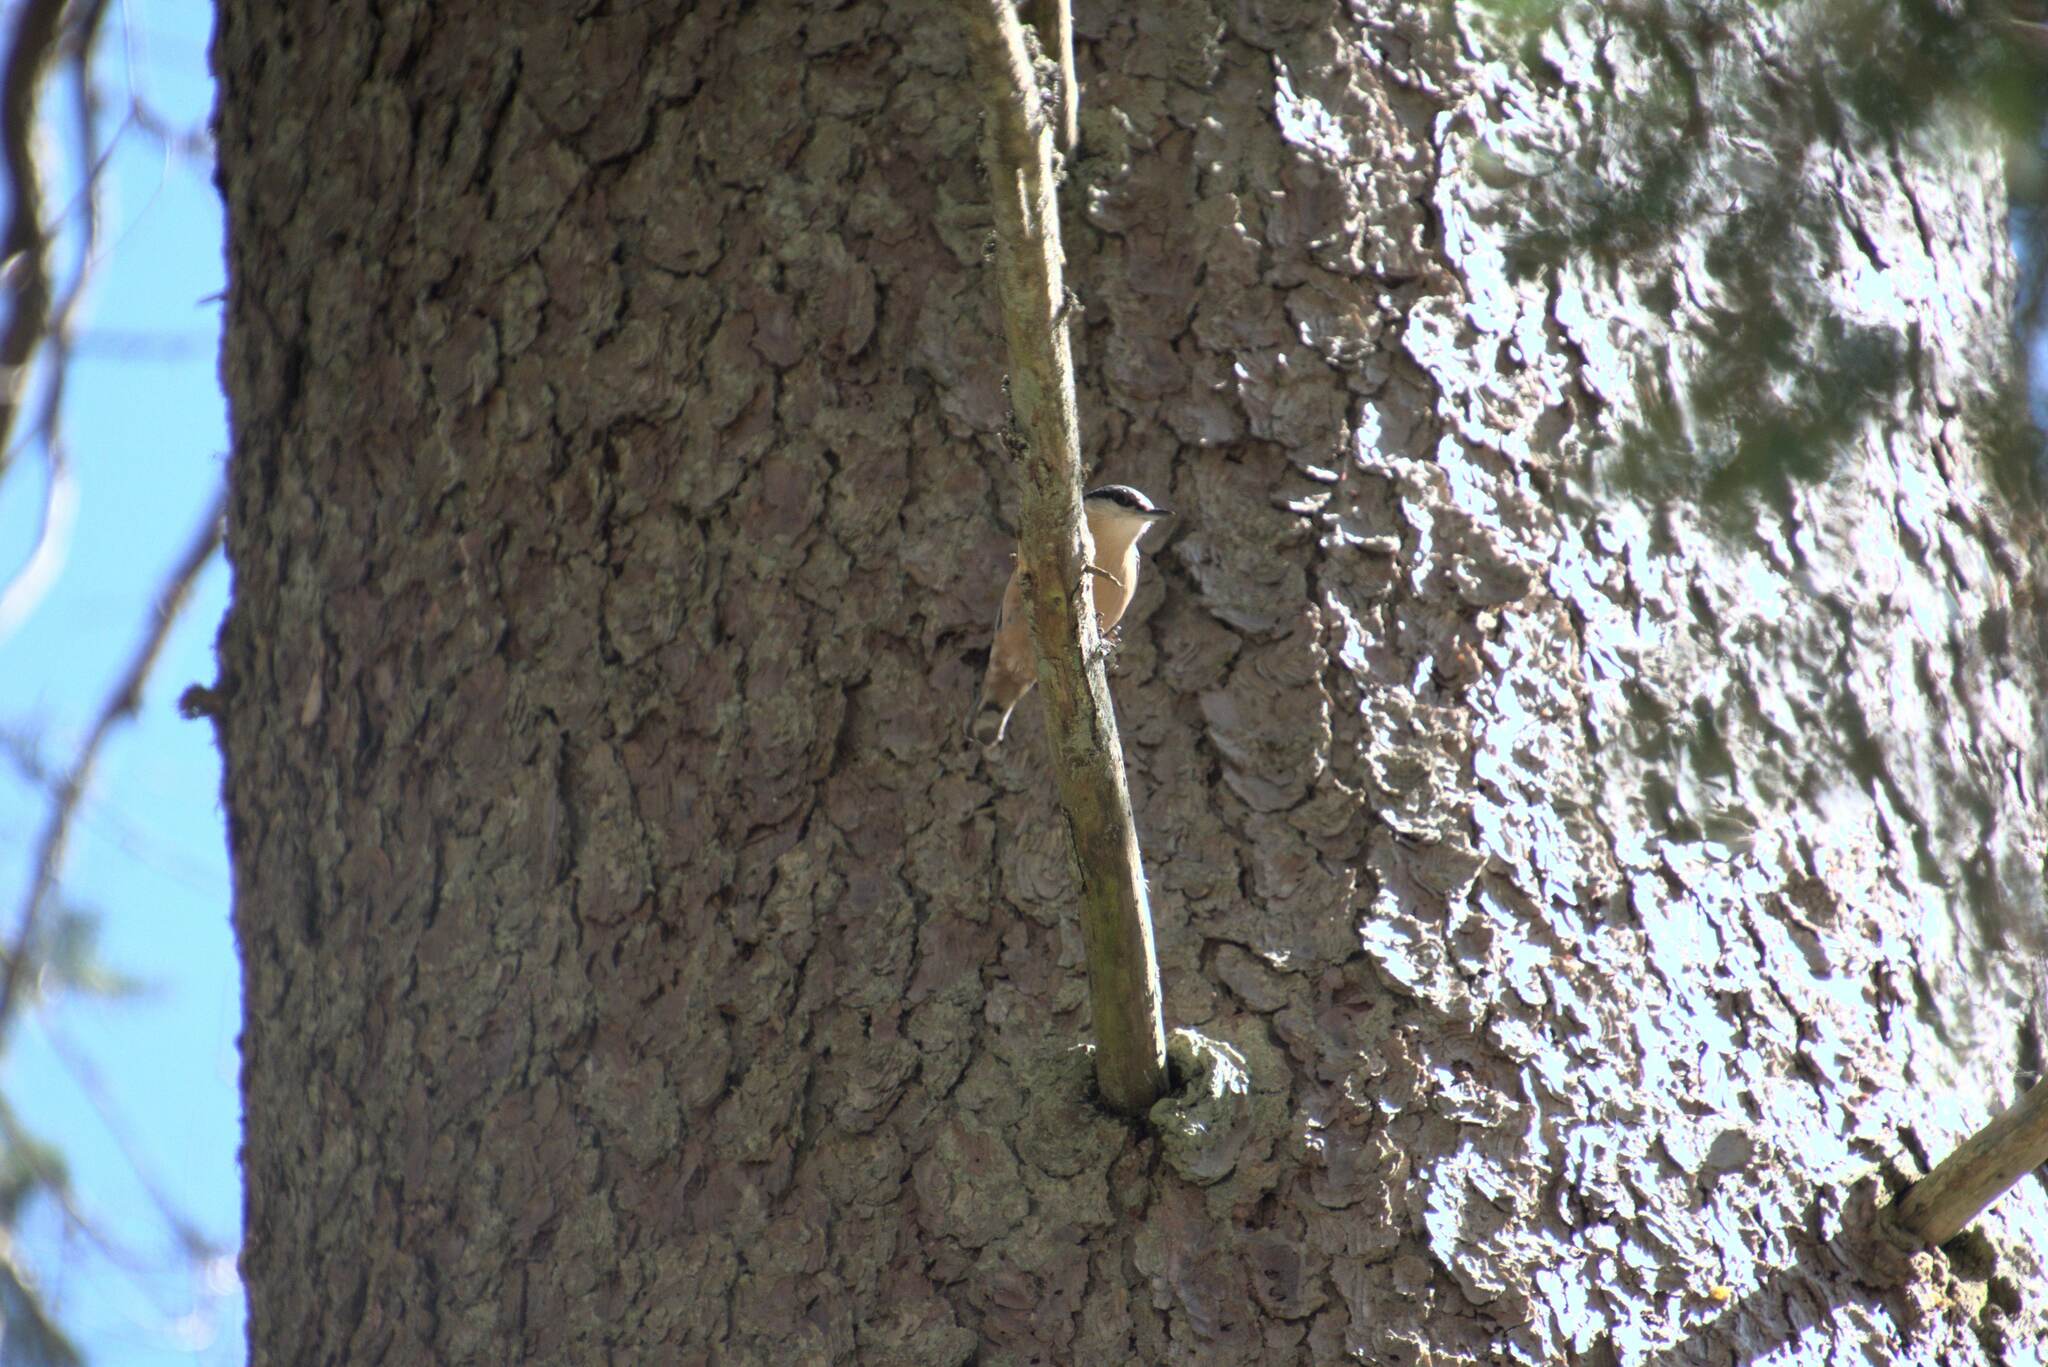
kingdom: Animalia
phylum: Chordata
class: Aves
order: Passeriformes
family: Sittidae
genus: Sitta
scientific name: Sitta europaea
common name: Eurasian nuthatch
